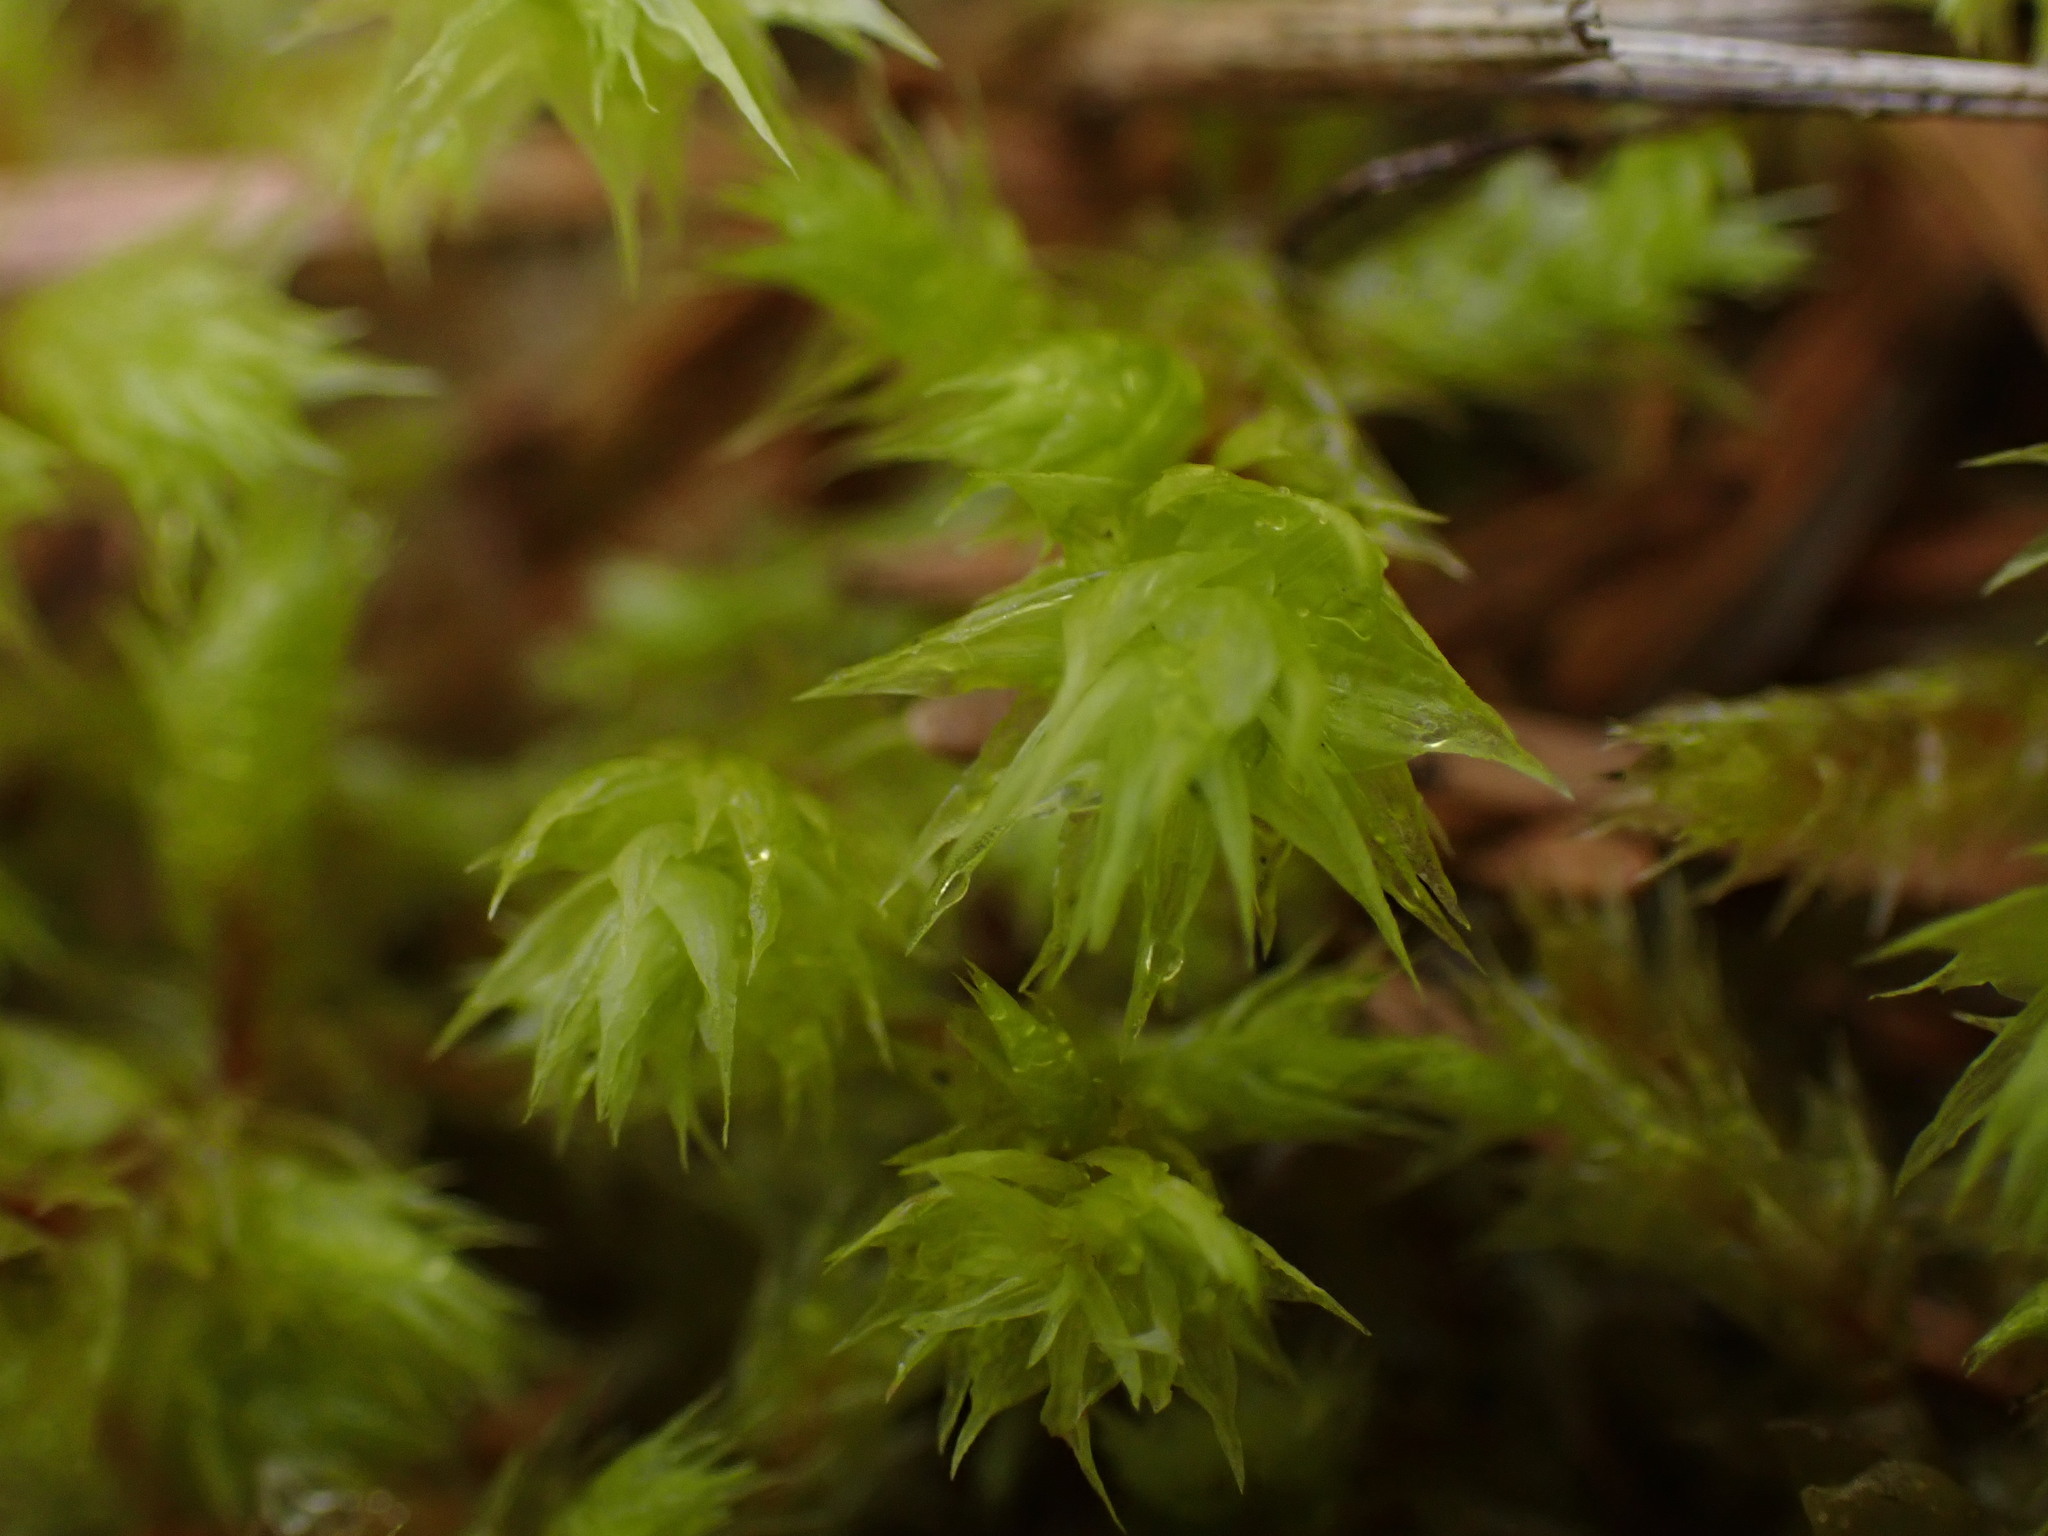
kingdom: Plantae
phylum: Bryophyta
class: Bryopsida
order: Hypnales
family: Hylocomiaceae
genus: Hylocomiadelphus
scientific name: Hylocomiadelphus triquetrus
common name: Rough goose neck moss
